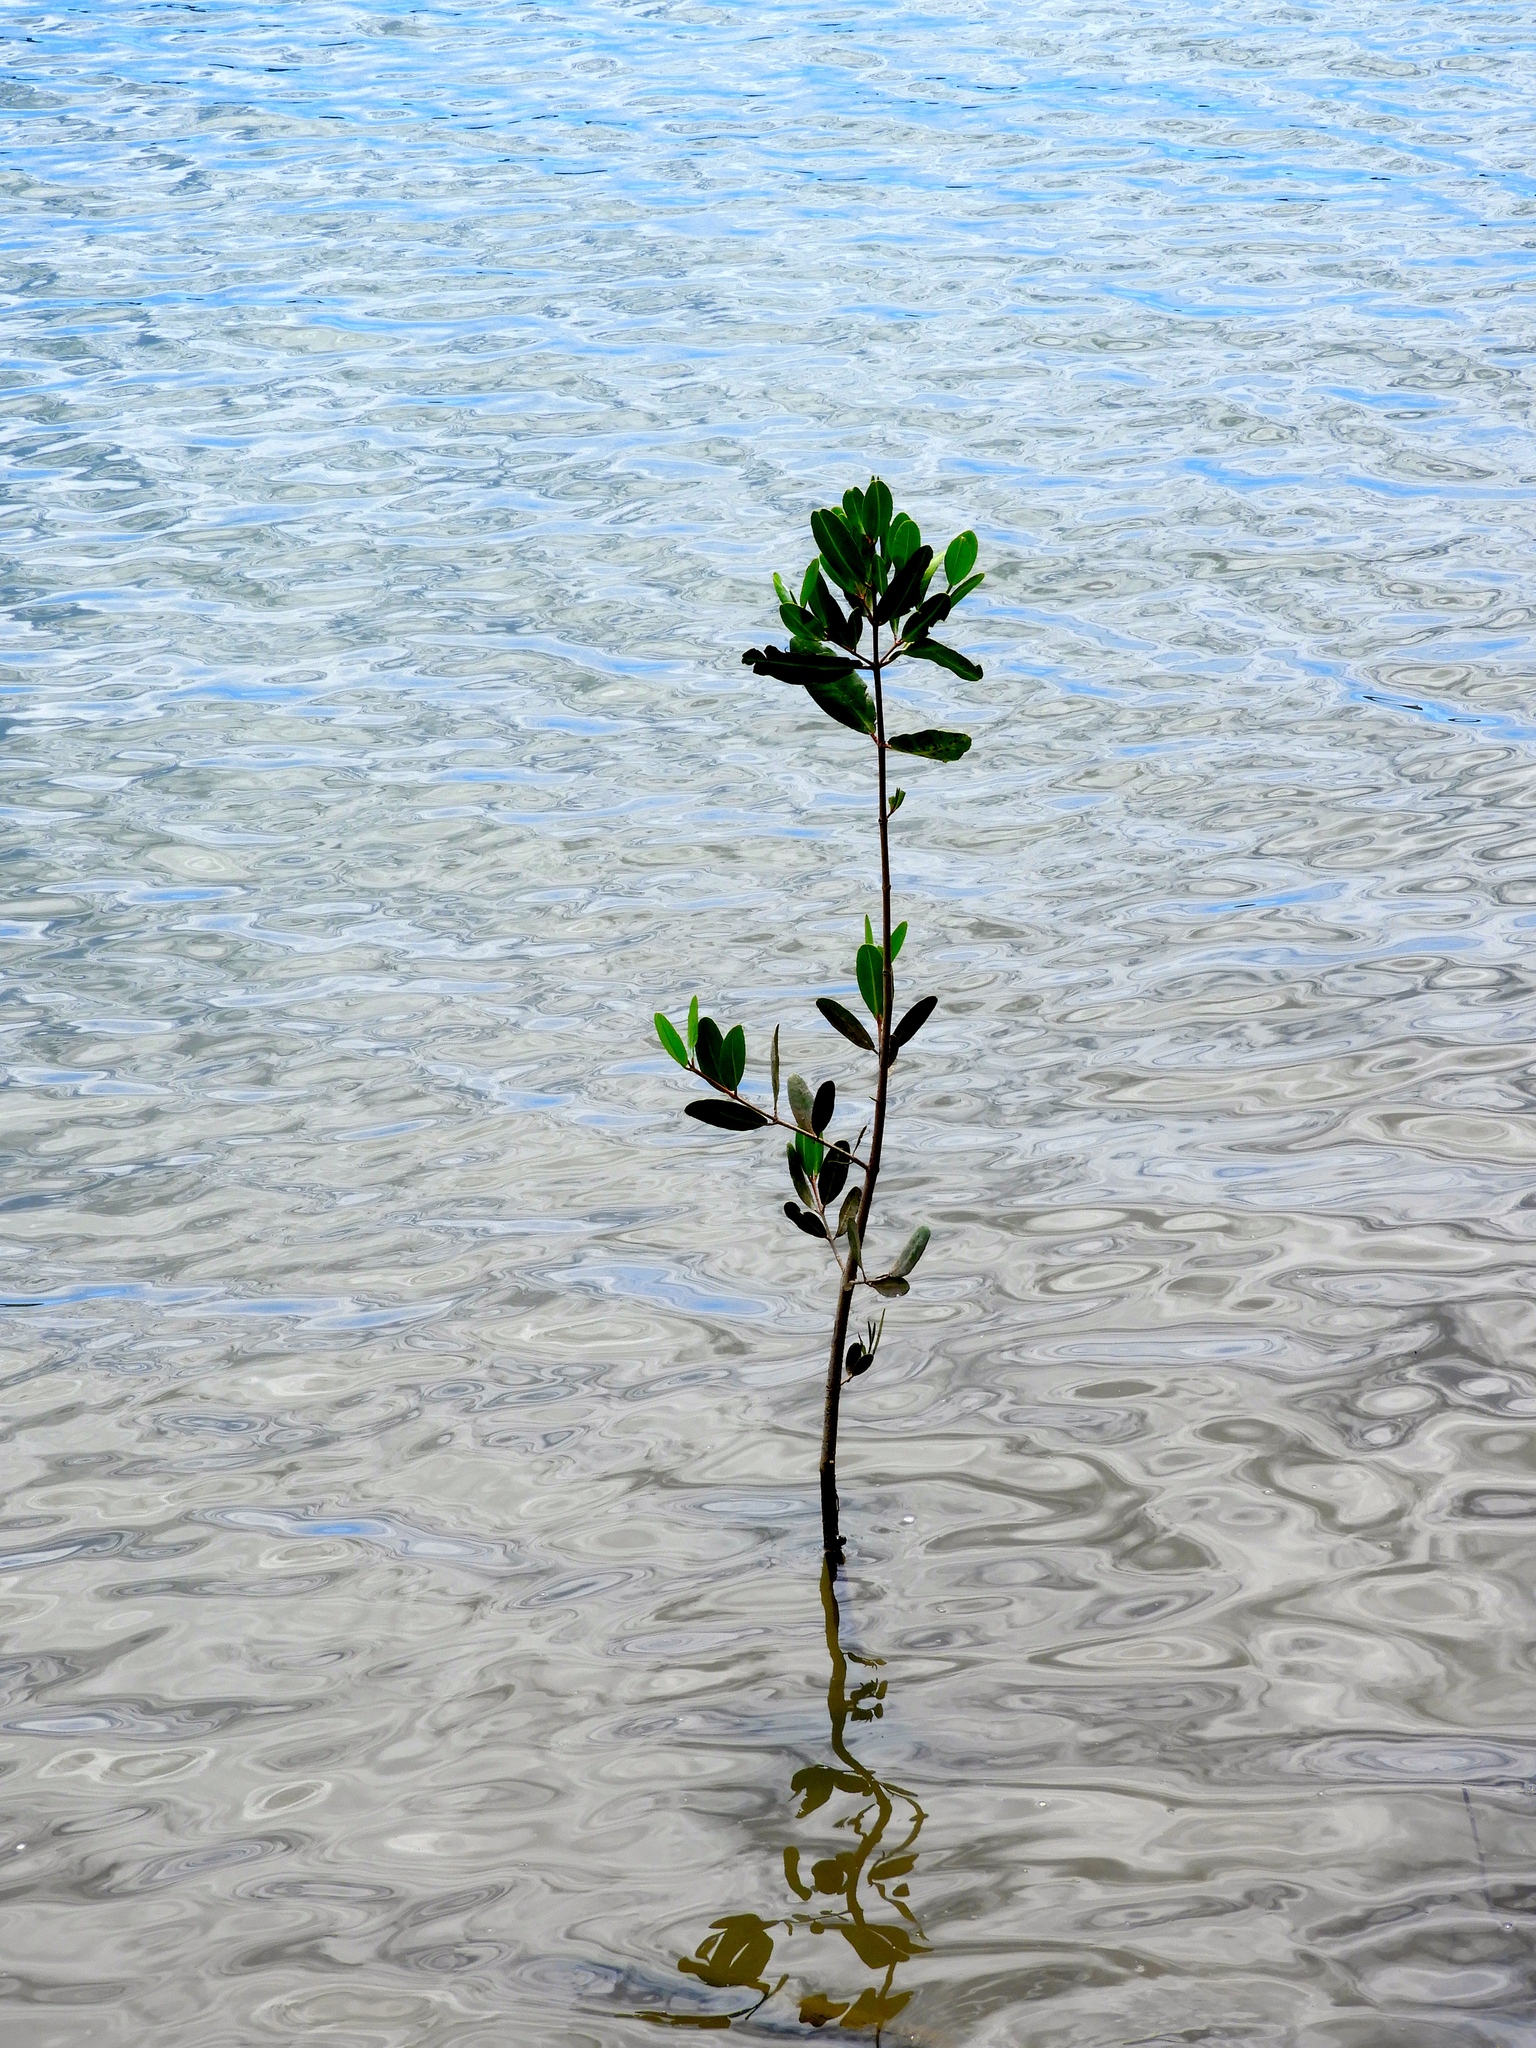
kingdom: Plantae
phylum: Tracheophyta
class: Magnoliopsida
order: Myrtales
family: Combretaceae
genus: Laguncularia
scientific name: Laguncularia racemosa
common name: White mangrove
